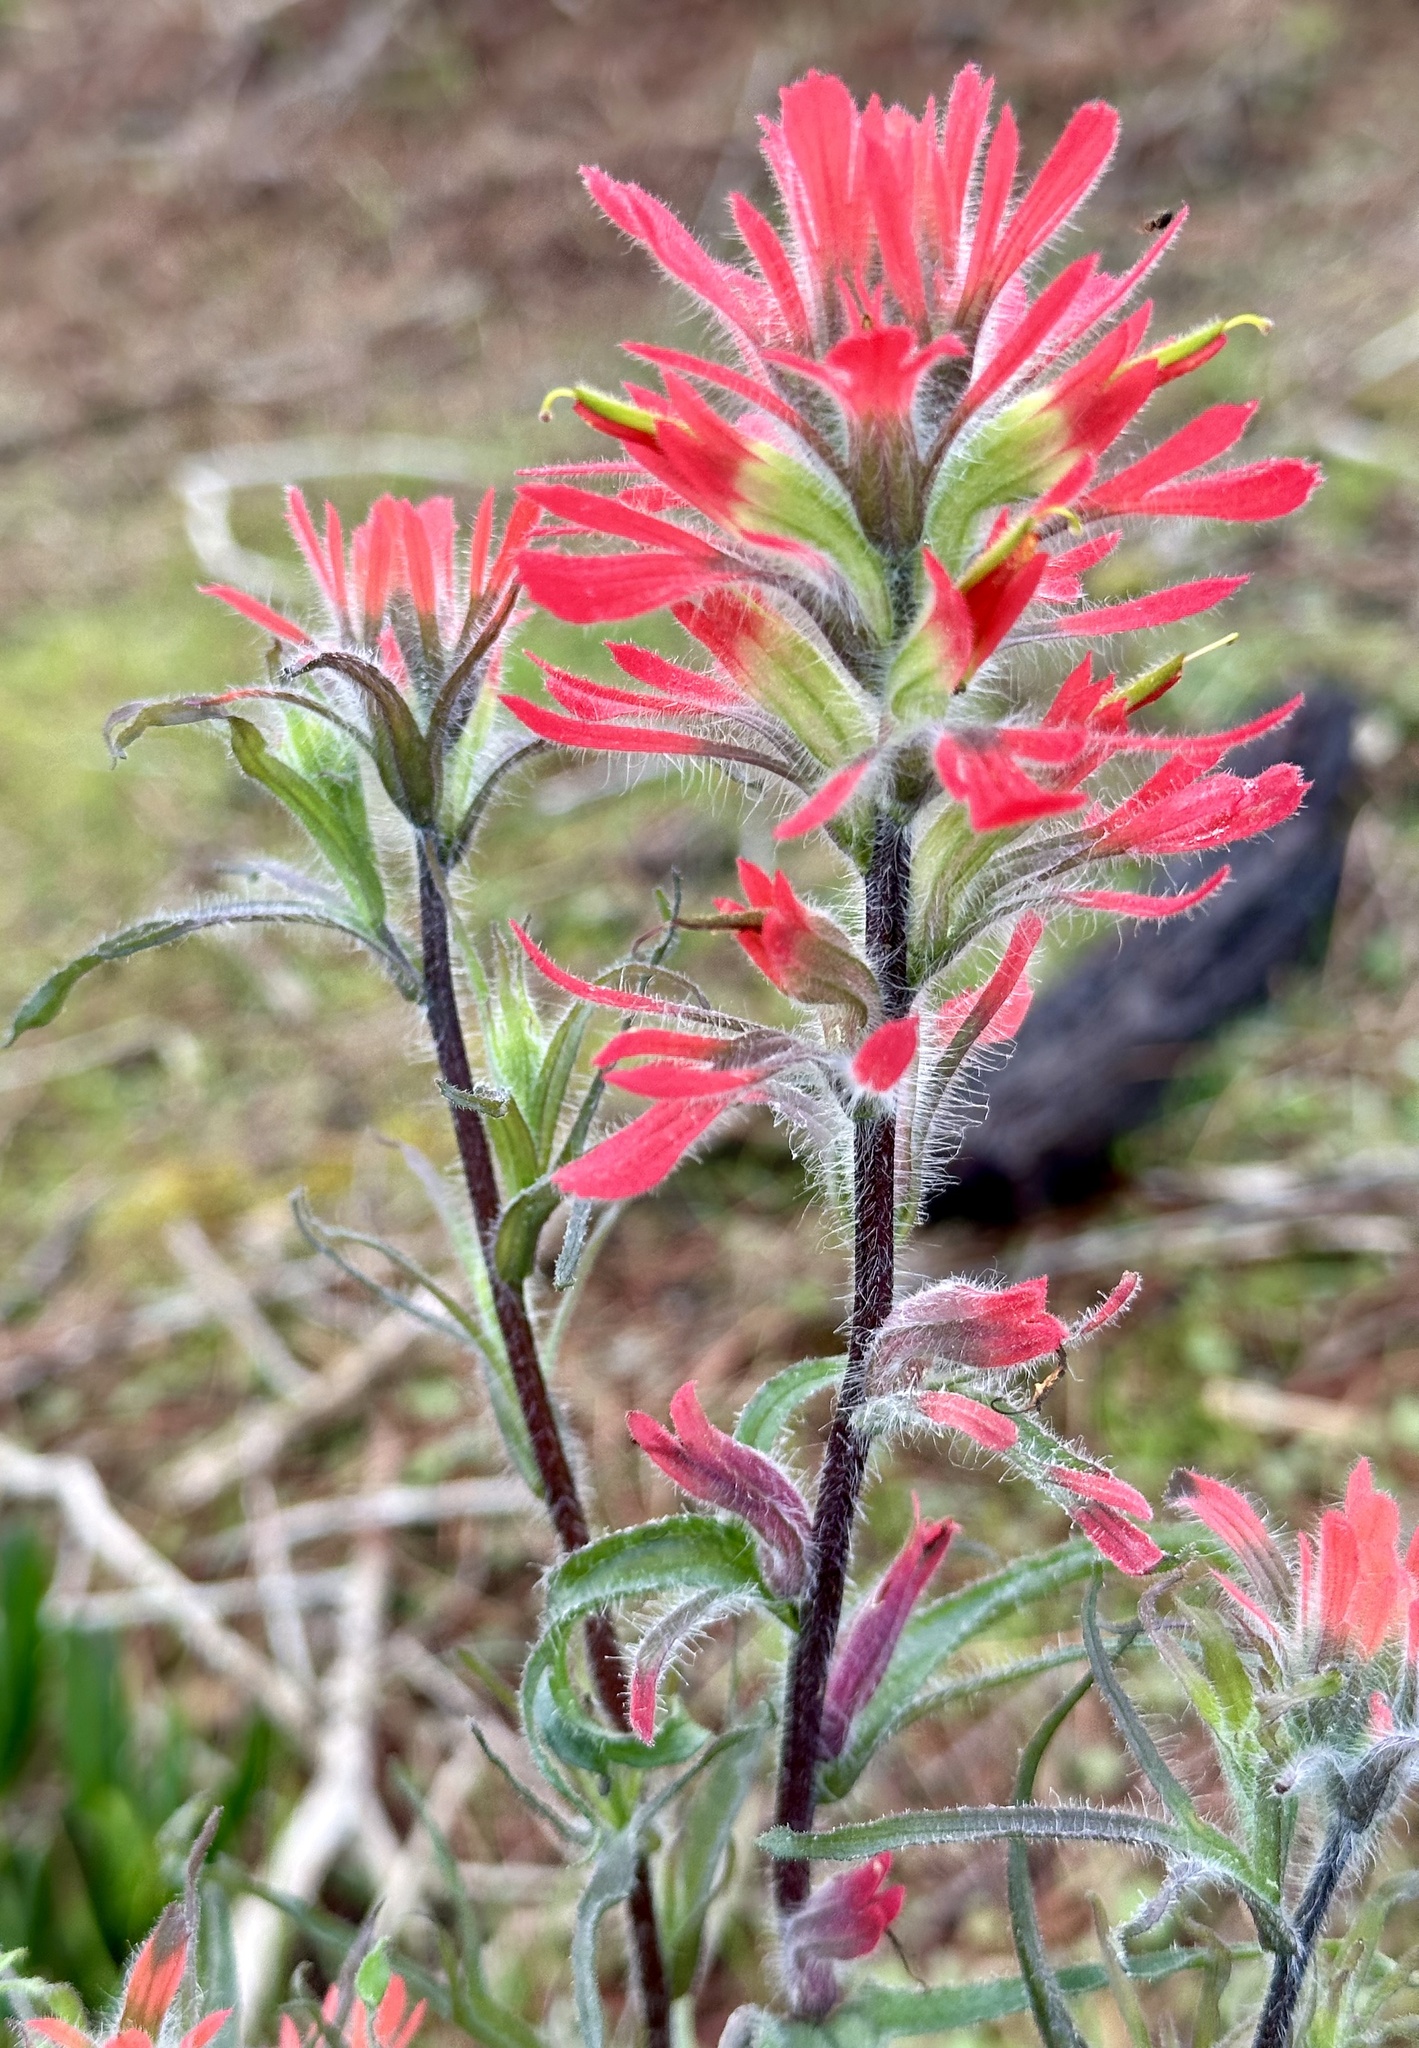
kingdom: Plantae
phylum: Tracheophyta
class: Magnoliopsida
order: Lamiales
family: Orobanchaceae
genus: Castilleja
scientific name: Castilleja affinis
